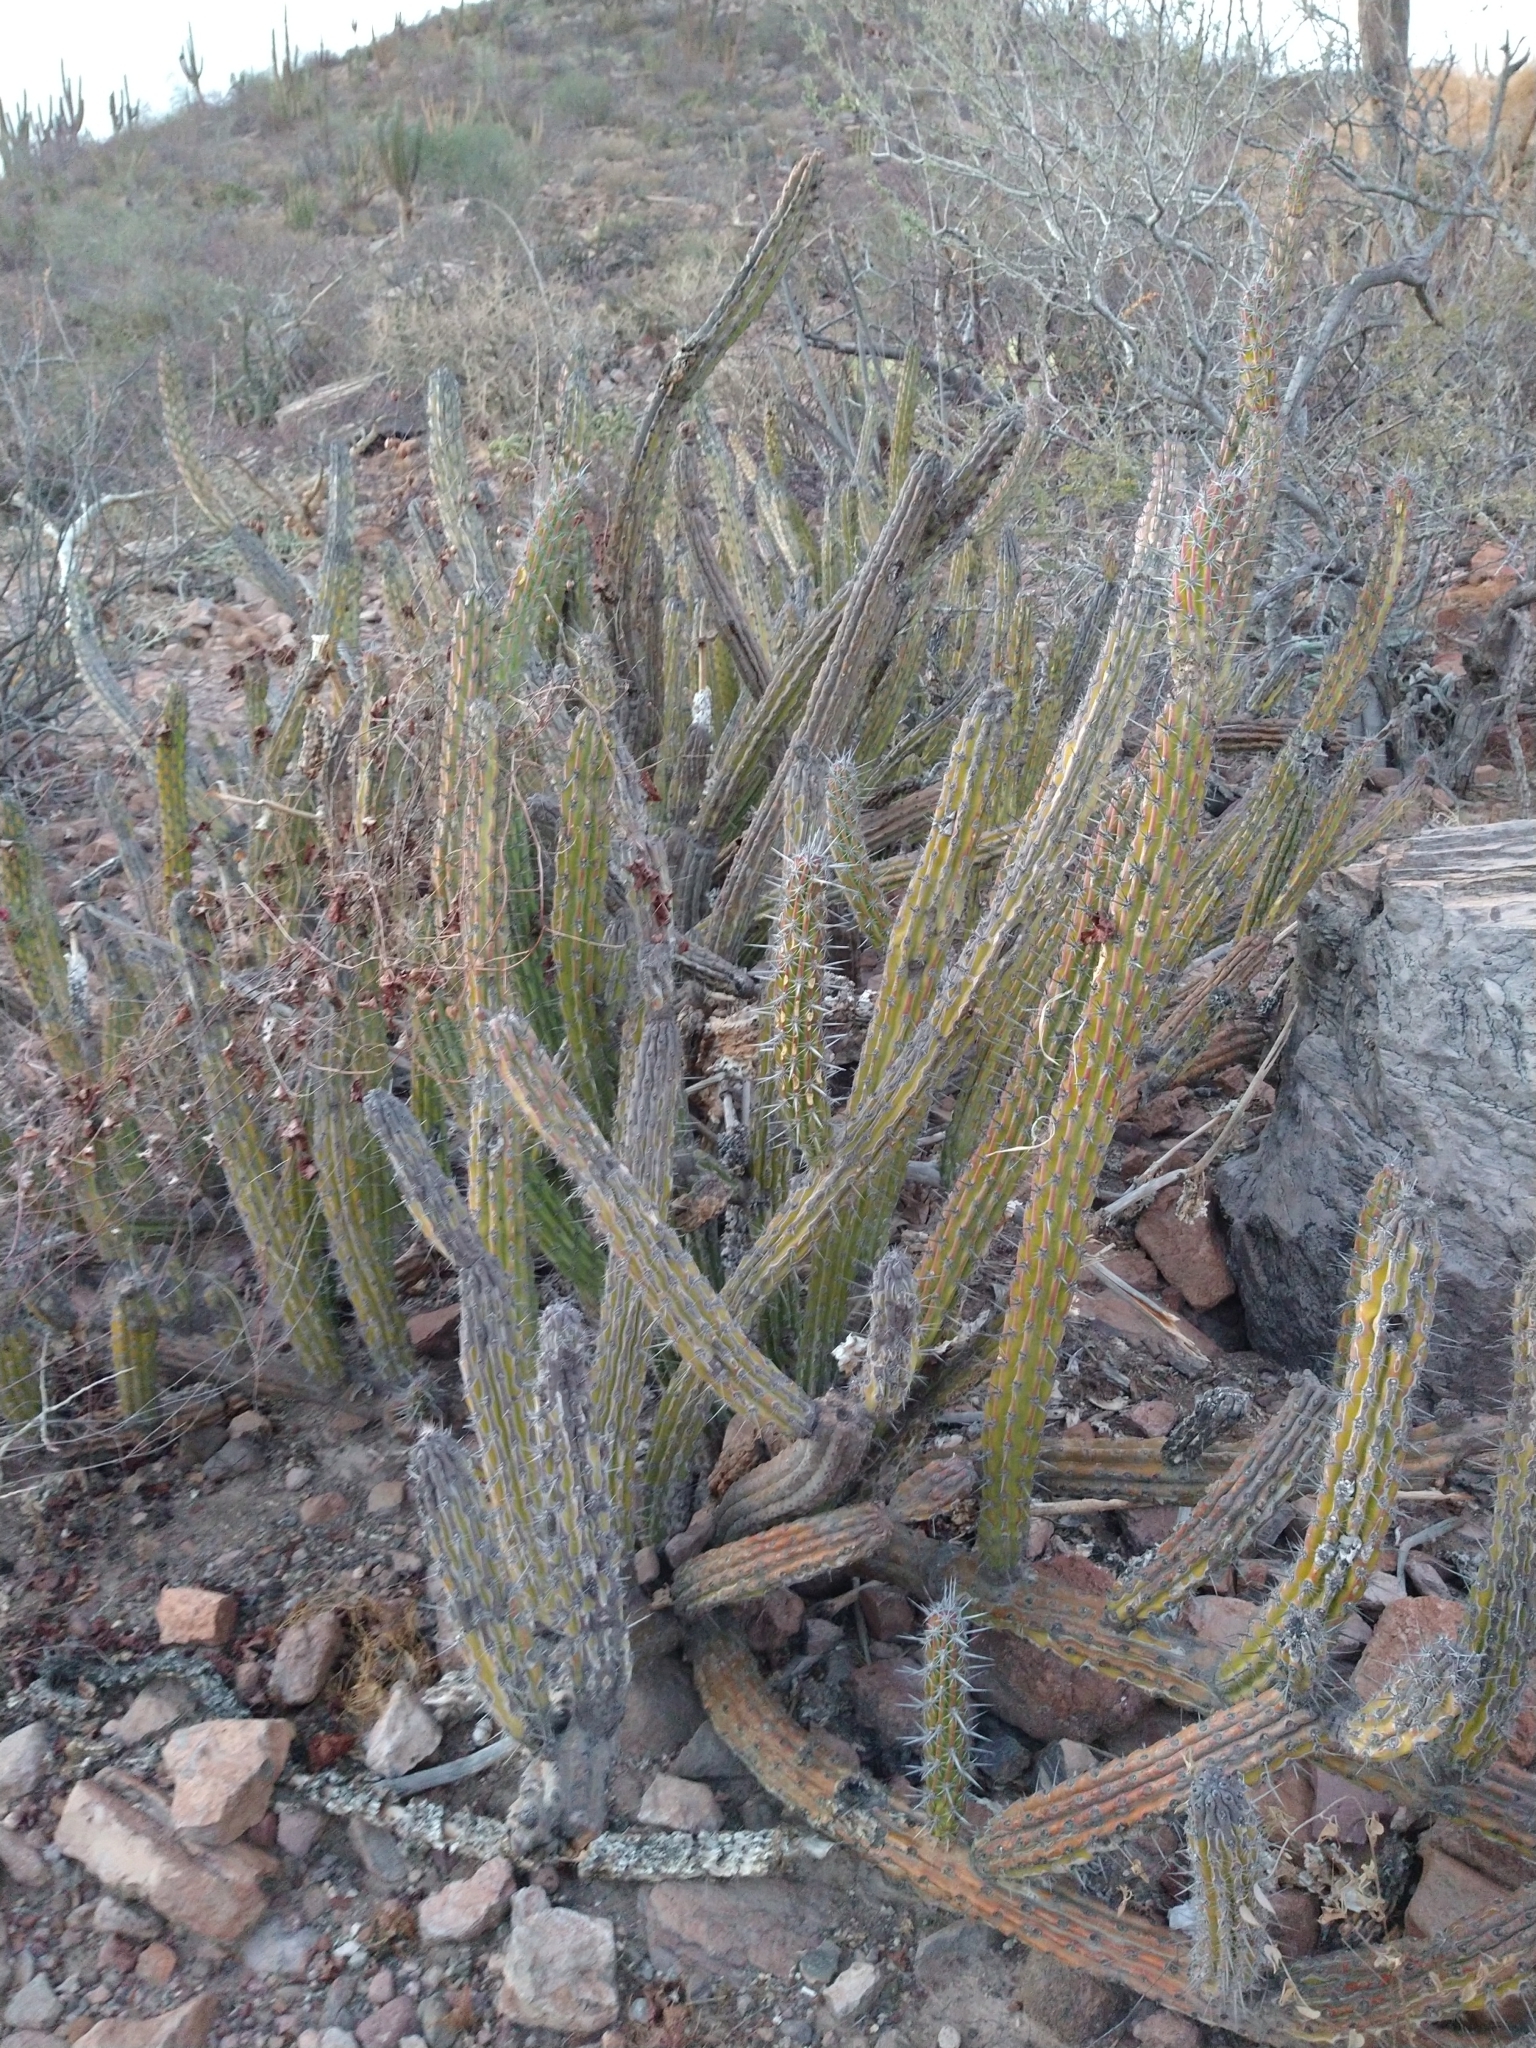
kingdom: Plantae
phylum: Tracheophyta
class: Magnoliopsida
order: Caryophyllales
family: Cactaceae
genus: Stenocereus
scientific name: Stenocereus gummosus
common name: Dagger cactus
